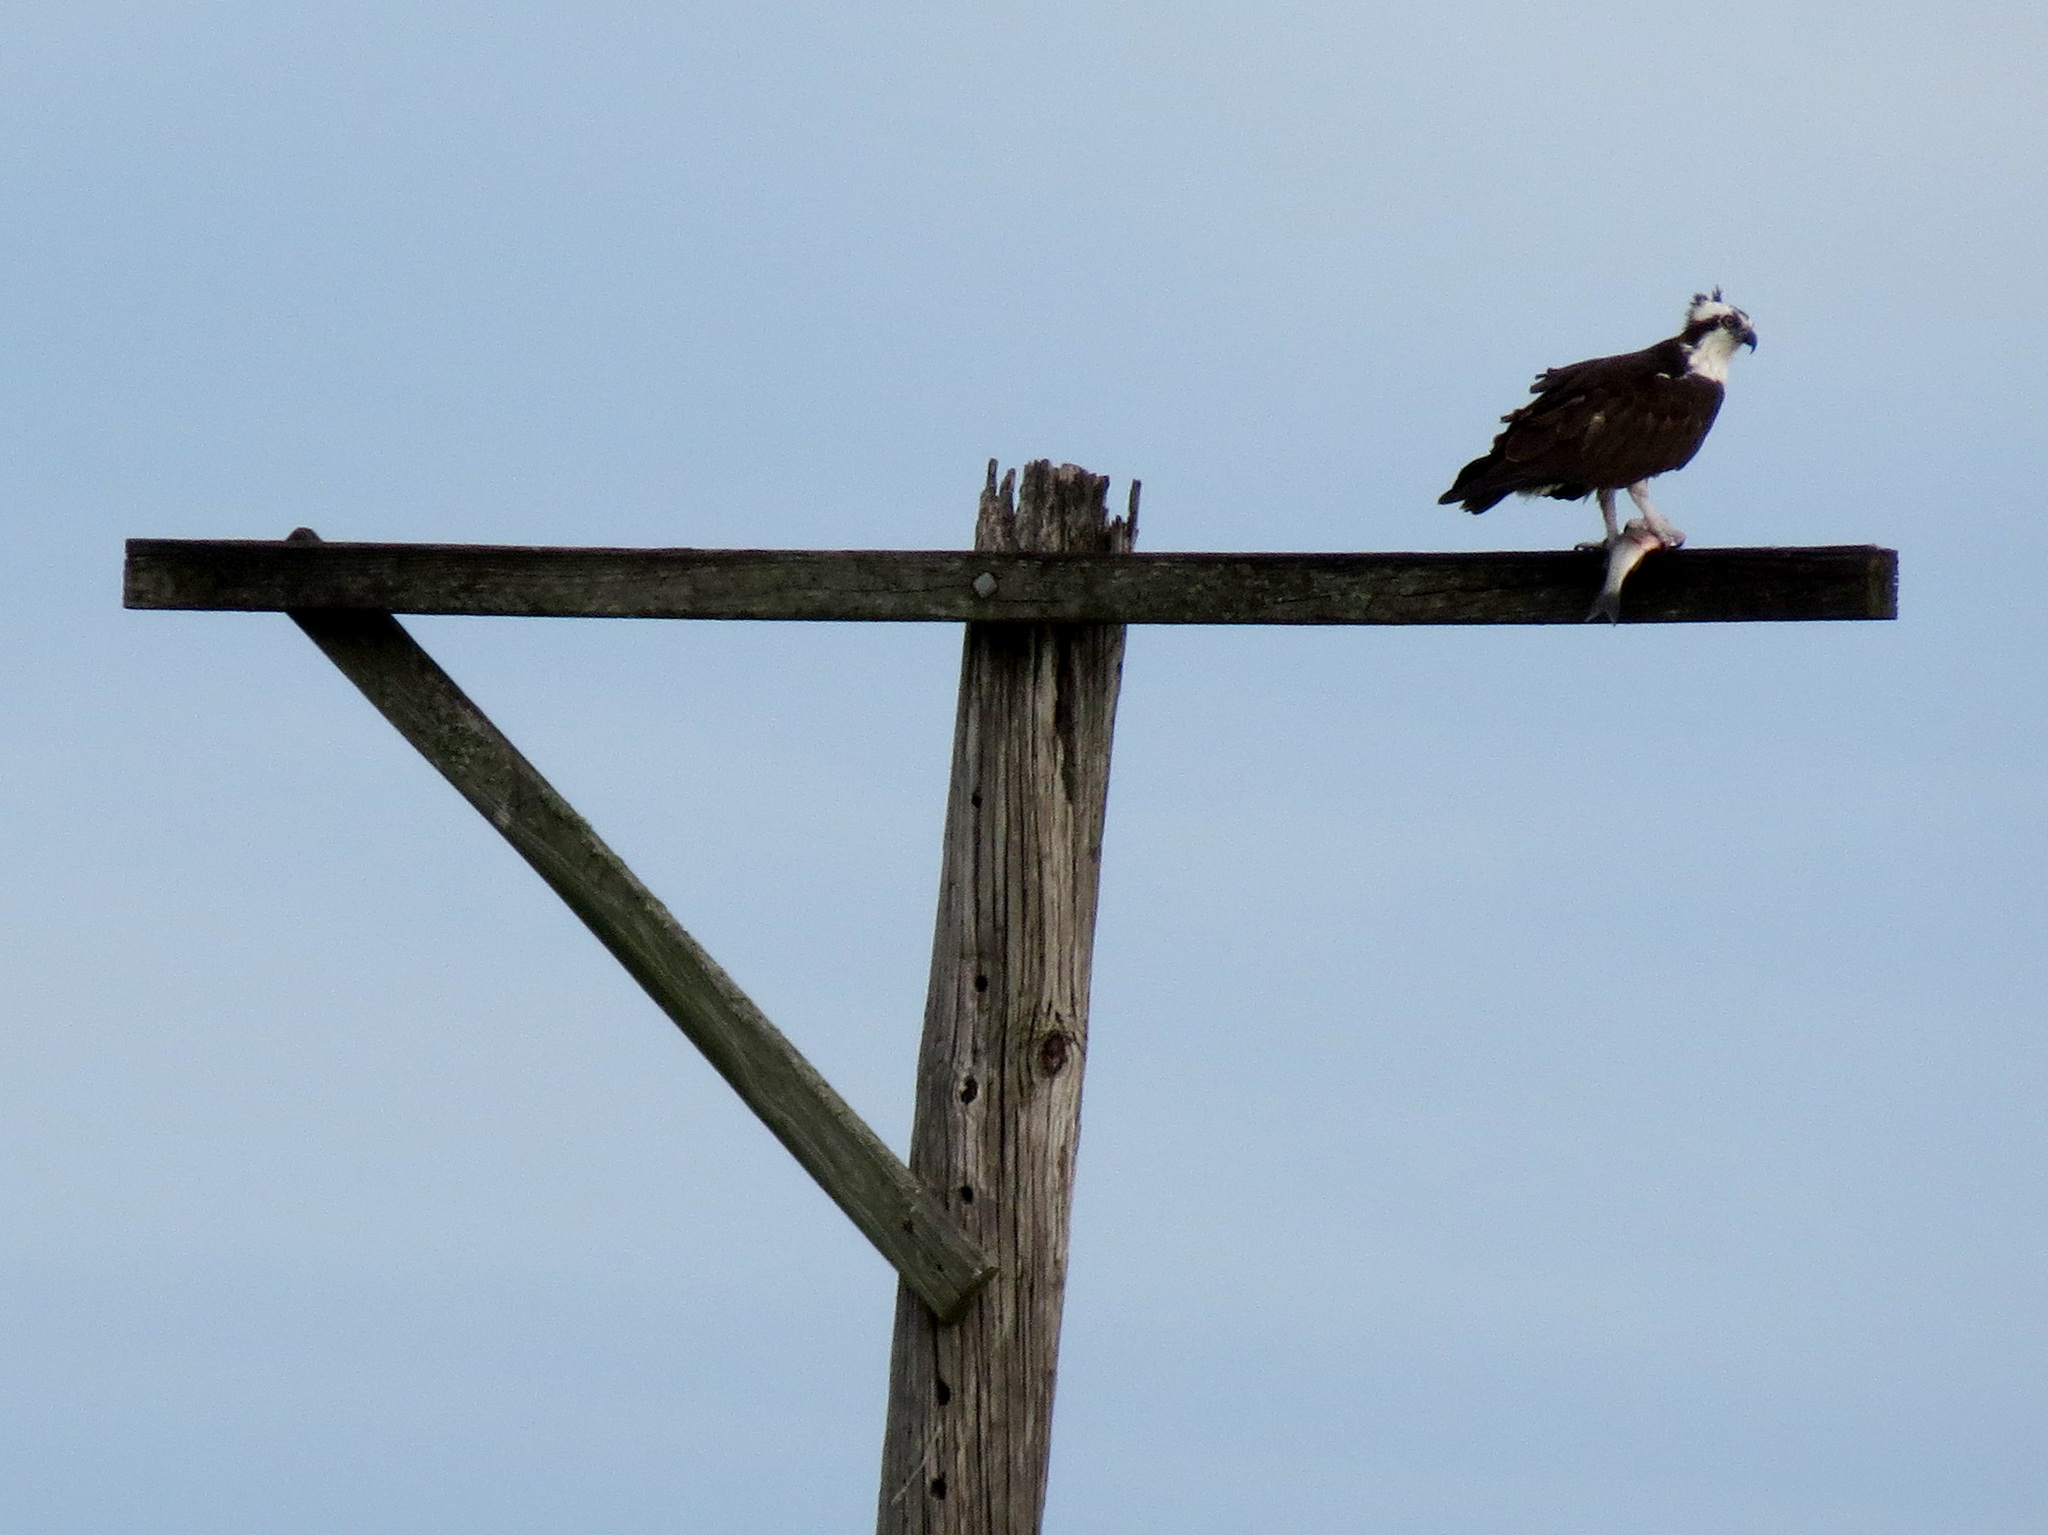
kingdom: Animalia
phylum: Chordata
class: Aves
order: Accipitriformes
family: Pandionidae
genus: Pandion
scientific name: Pandion haliaetus
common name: Osprey
